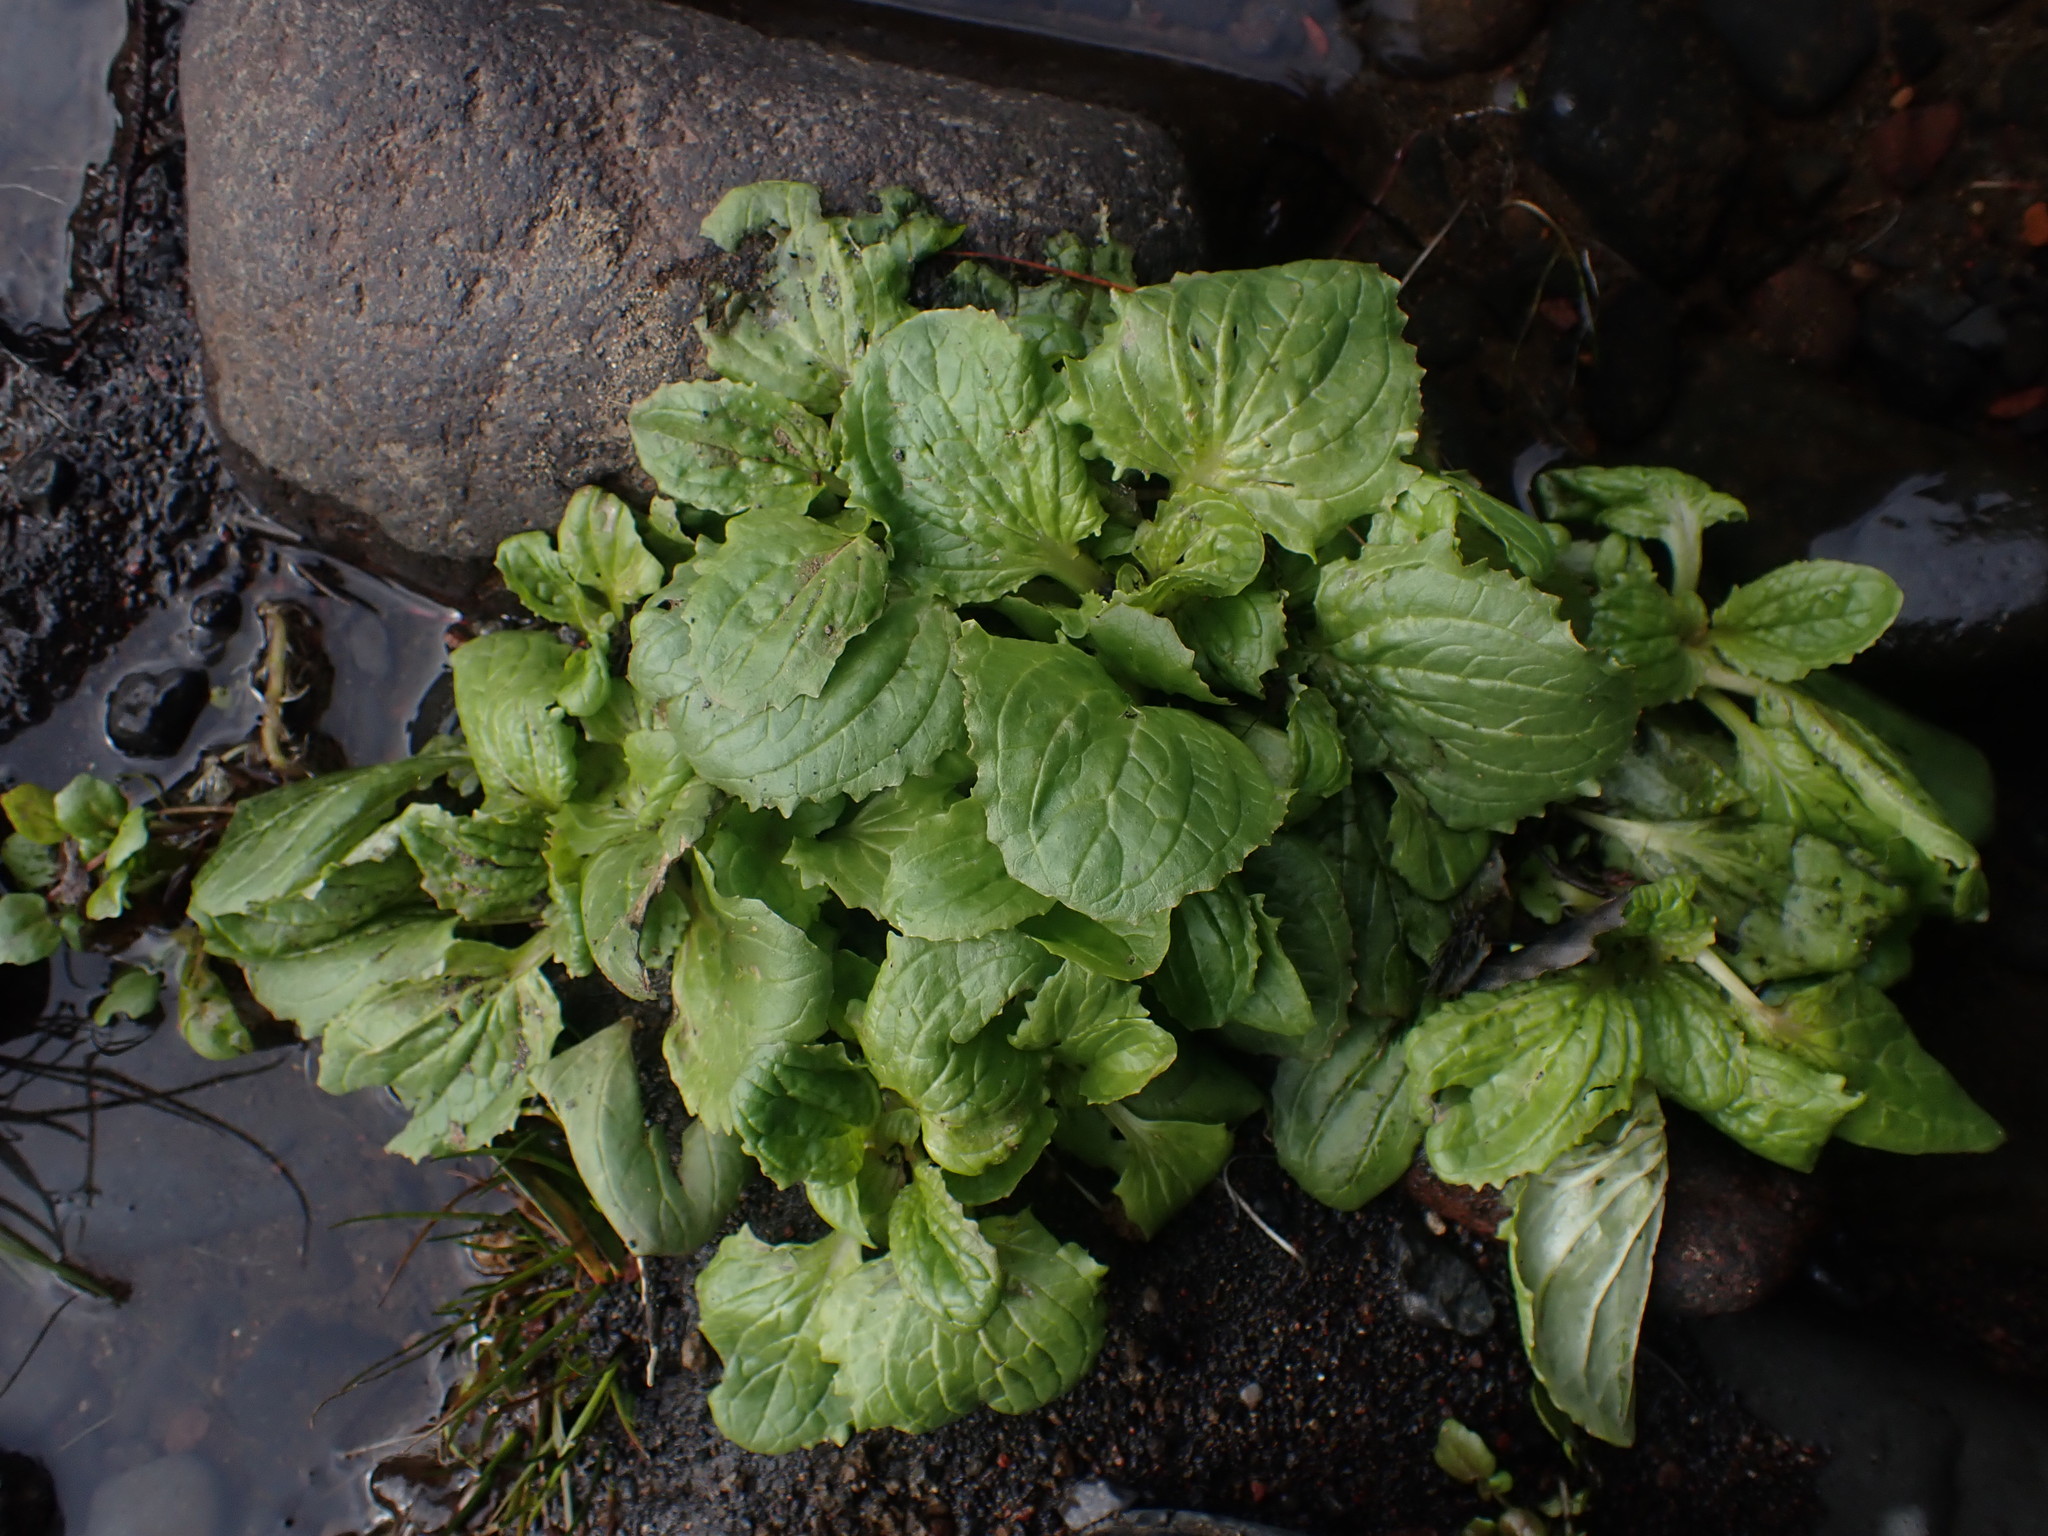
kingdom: Plantae
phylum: Tracheophyta
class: Magnoliopsida
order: Lamiales
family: Phrymaceae
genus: Erythranthe
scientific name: Erythranthe guttata
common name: Monkeyflower
